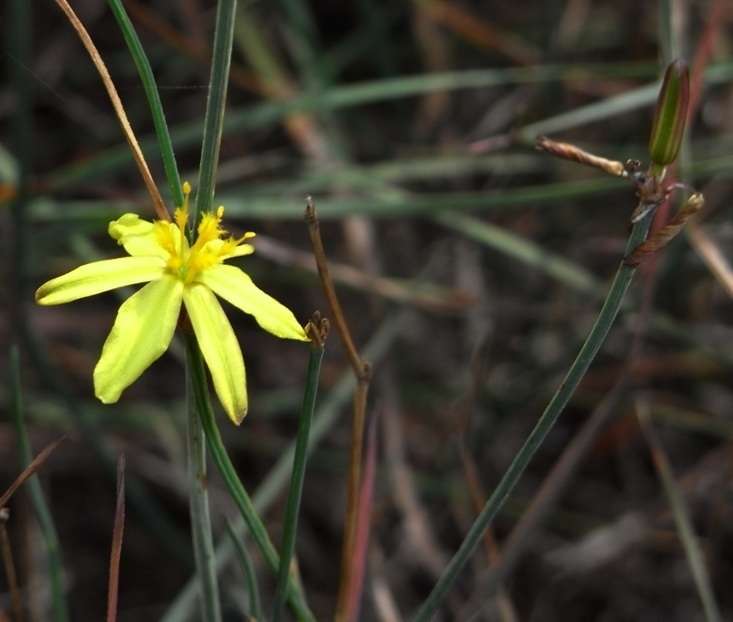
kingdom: Plantae
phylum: Tracheophyta
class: Liliopsida
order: Asparagales
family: Asphodelaceae
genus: Tricoryne
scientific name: Tricoryne elatior
